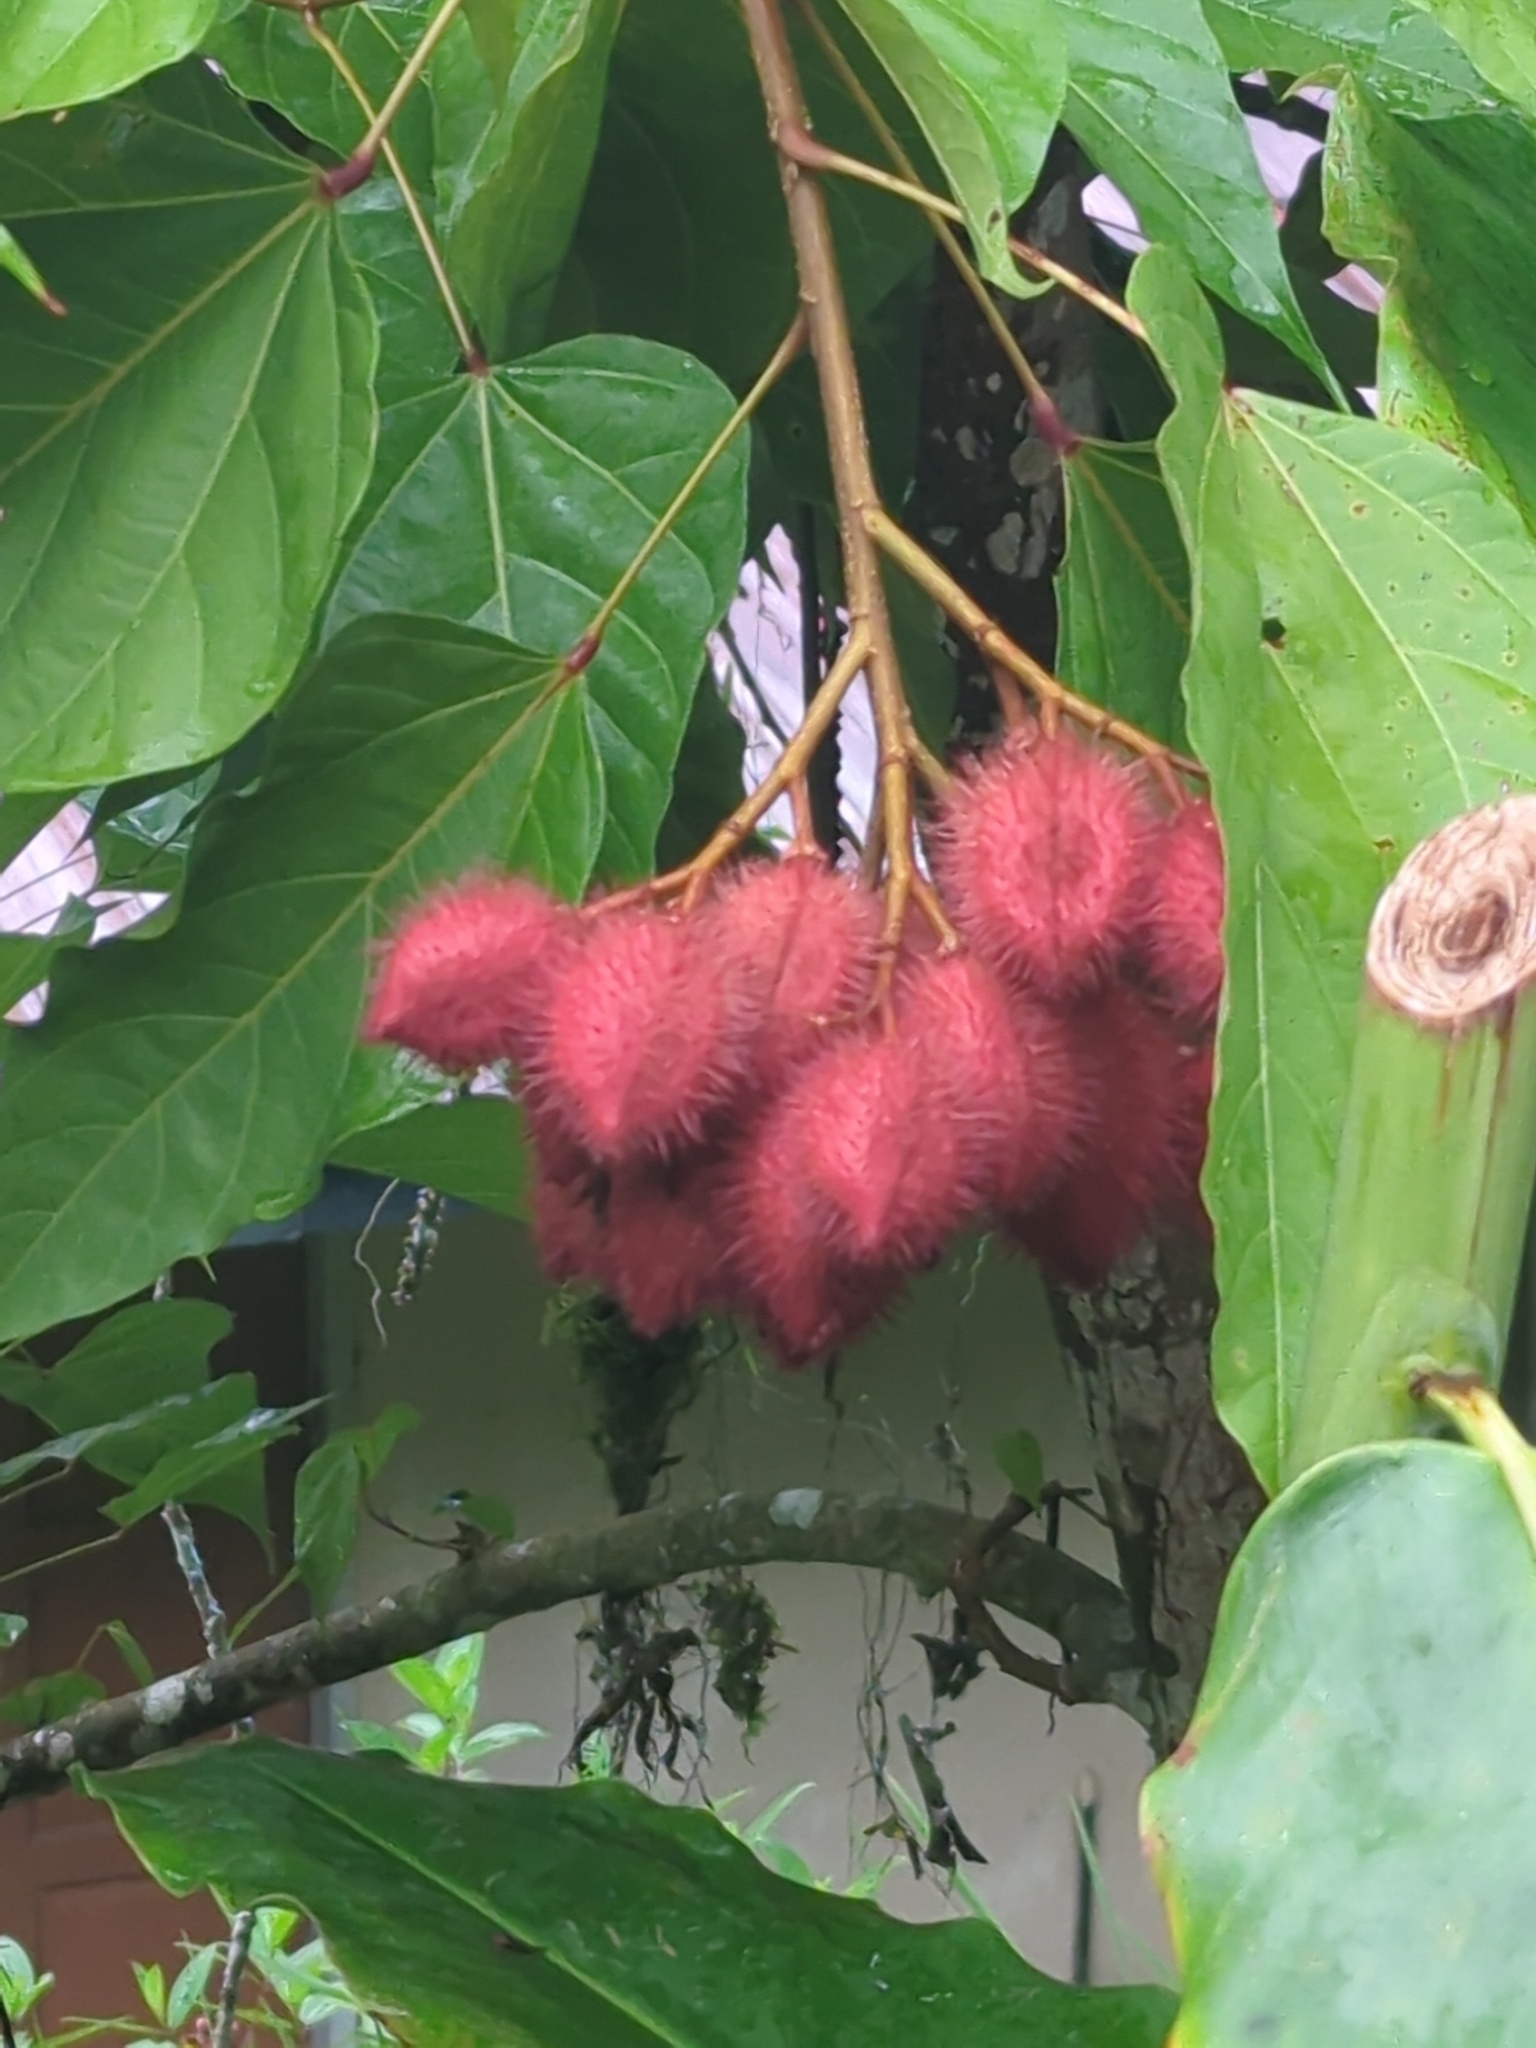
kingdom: Plantae
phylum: Tracheophyta
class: Magnoliopsida
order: Malvales
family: Bixaceae
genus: Bixa
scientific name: Bixa orellana
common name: Lipsticktree
